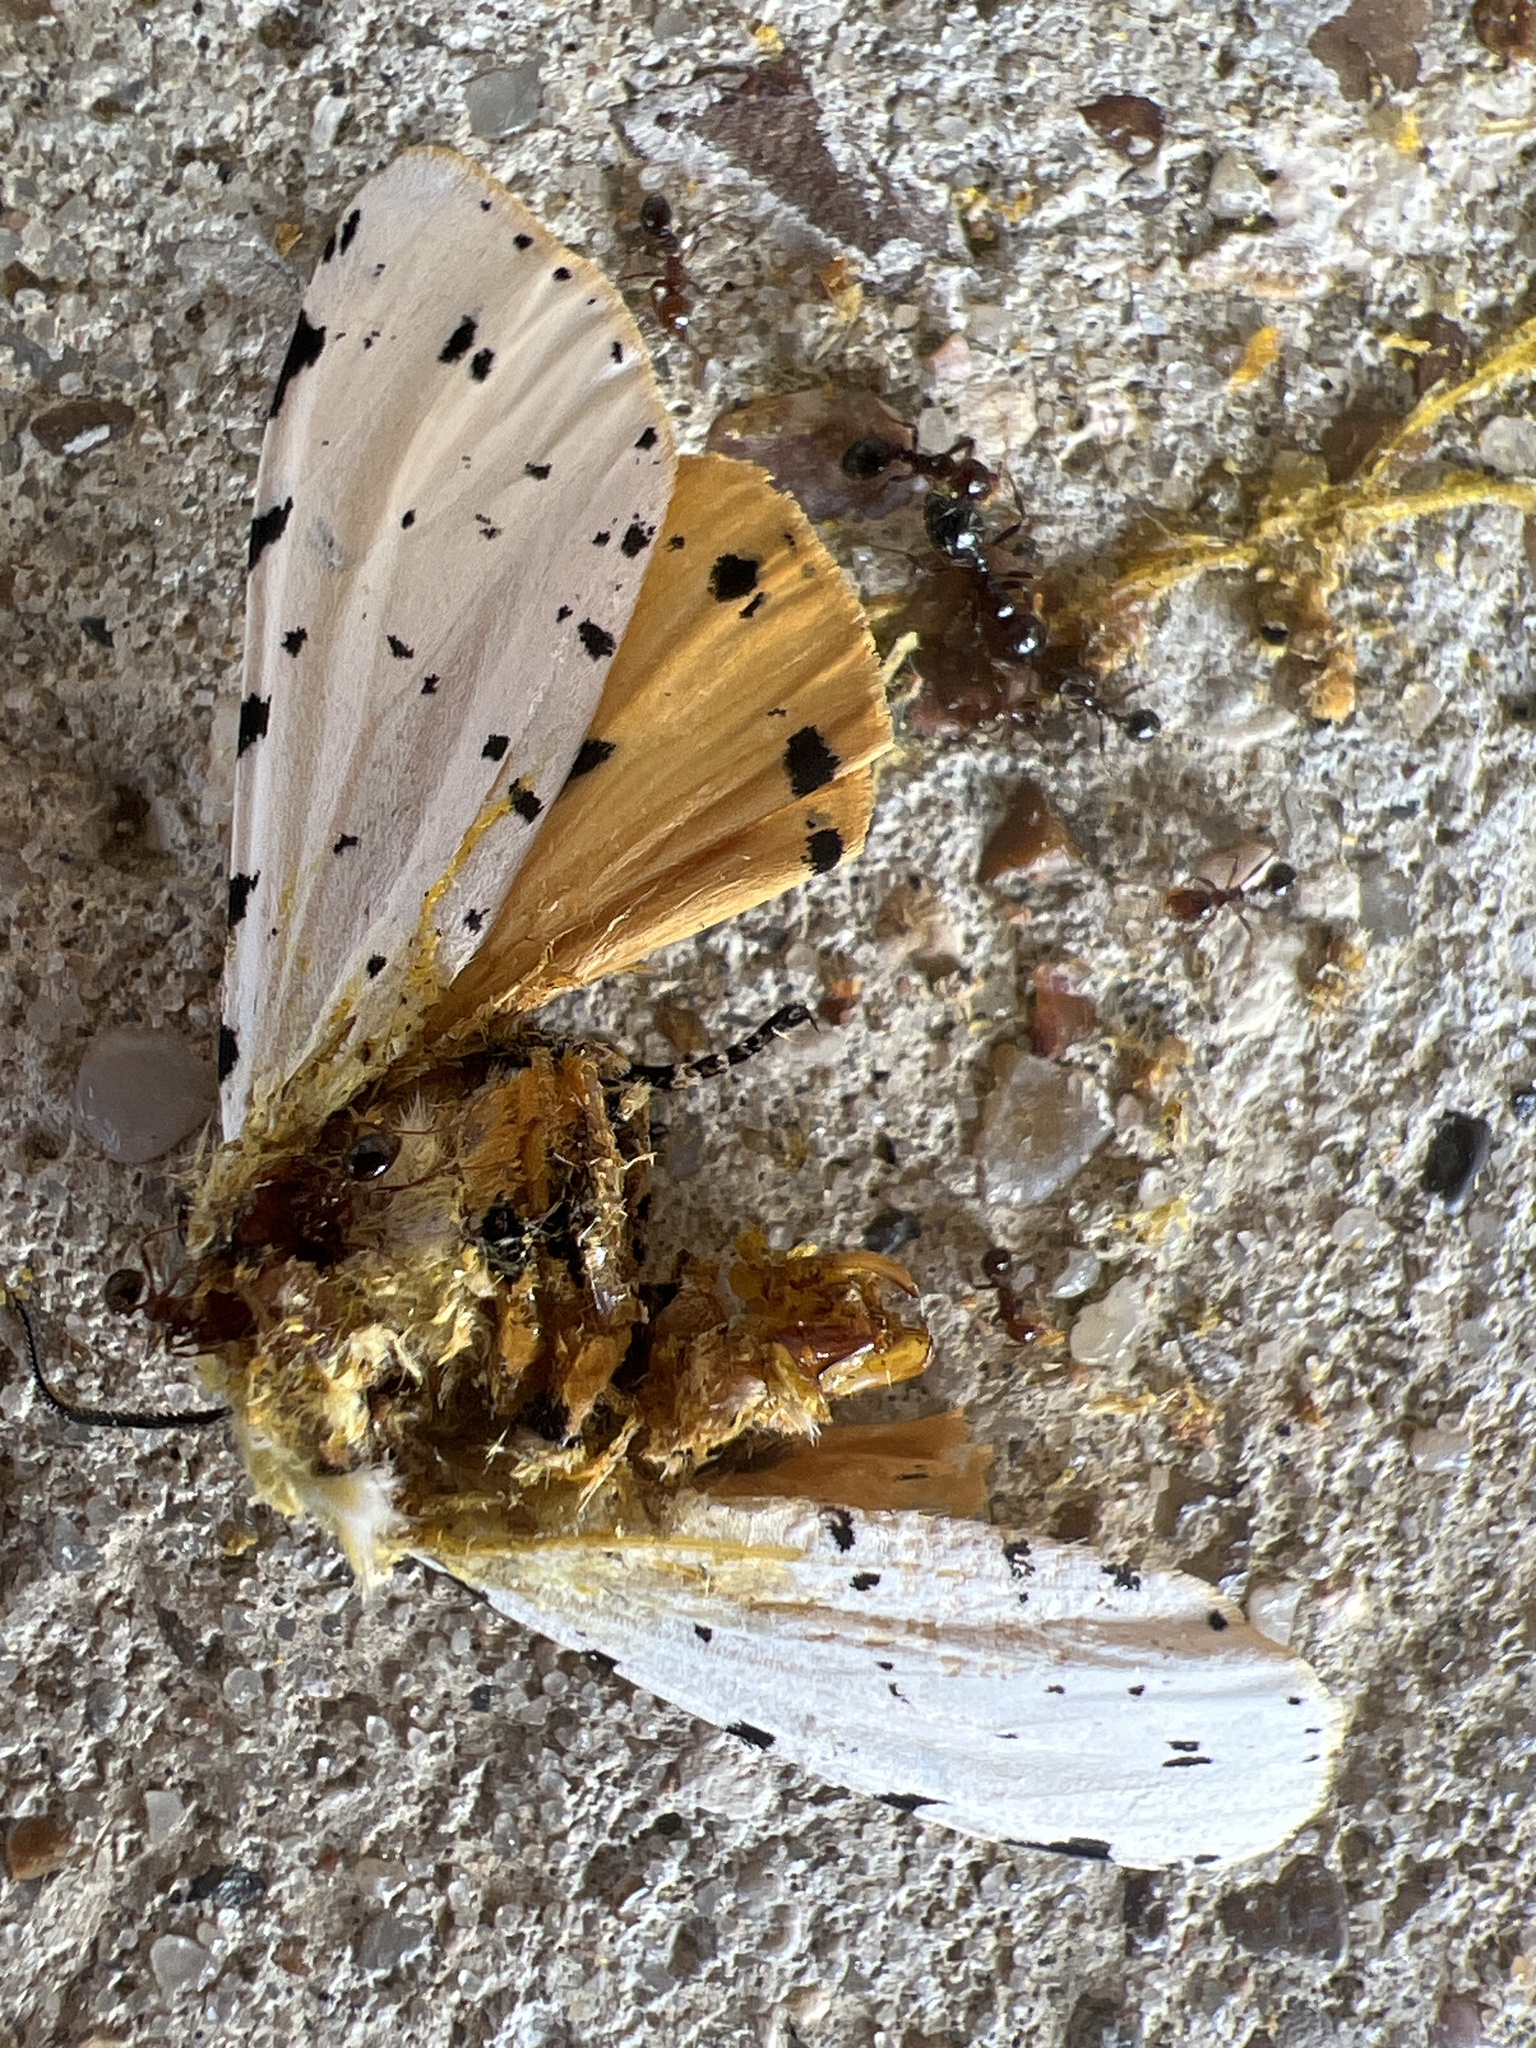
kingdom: Animalia
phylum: Arthropoda
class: Insecta
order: Lepidoptera
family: Erebidae
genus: Estigmene
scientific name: Estigmene acrea
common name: Salt marsh moth
